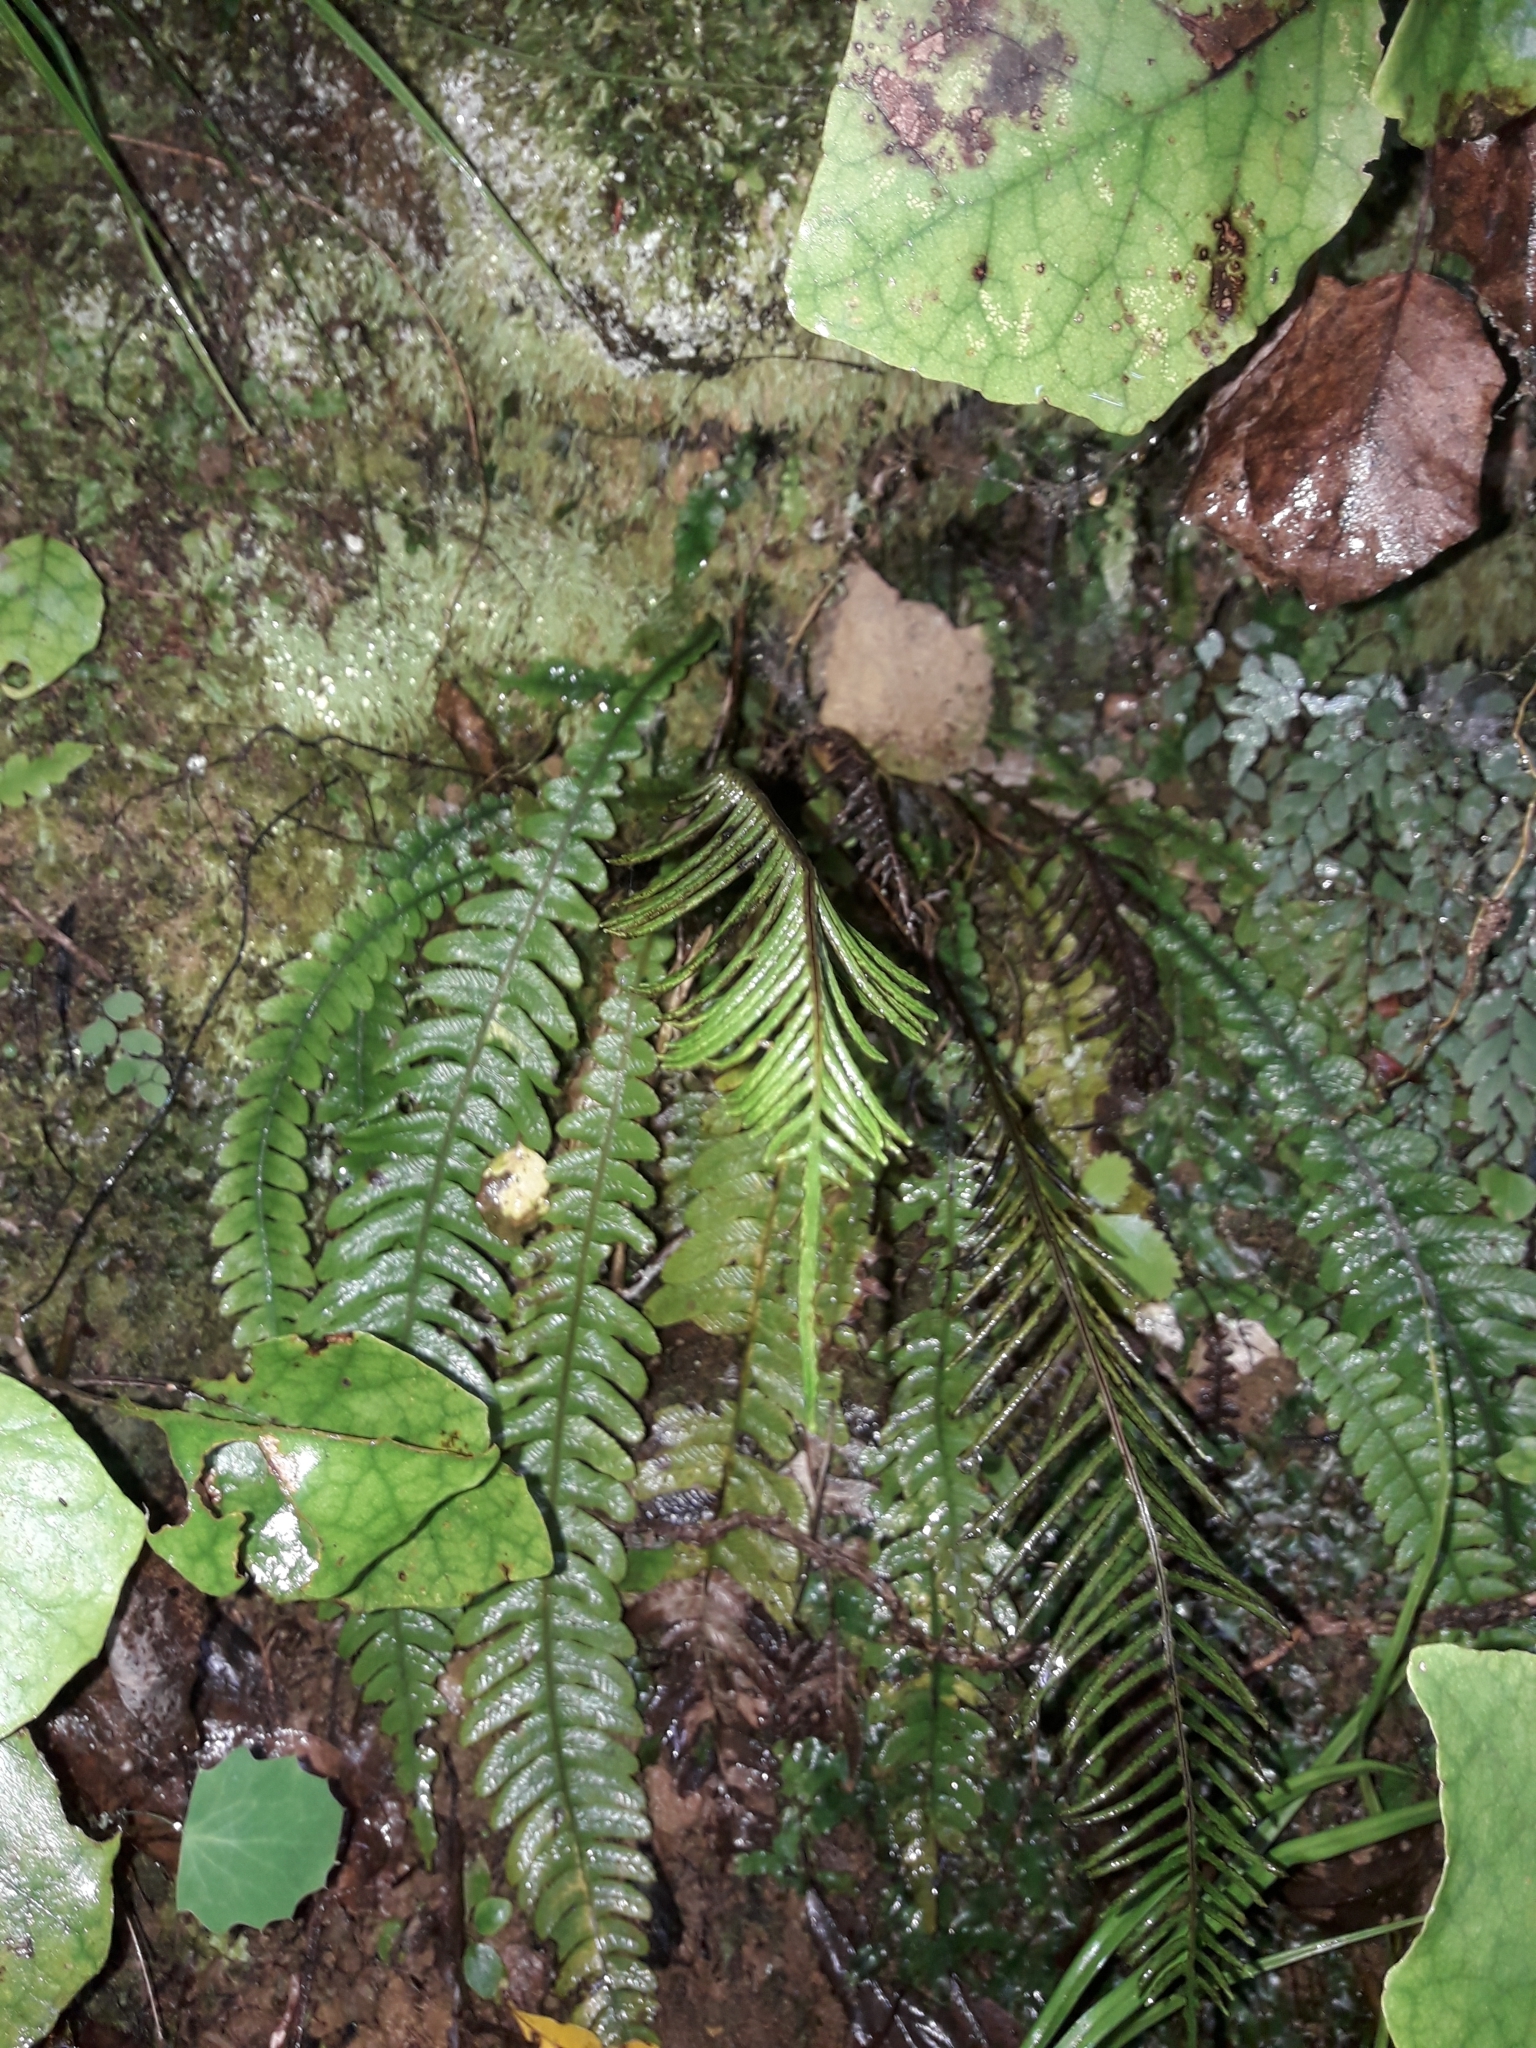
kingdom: Plantae
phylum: Tracheophyta
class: Polypodiopsida
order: Polypodiales
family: Blechnaceae
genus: Austroblechnum
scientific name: Austroblechnum lanceolatum
